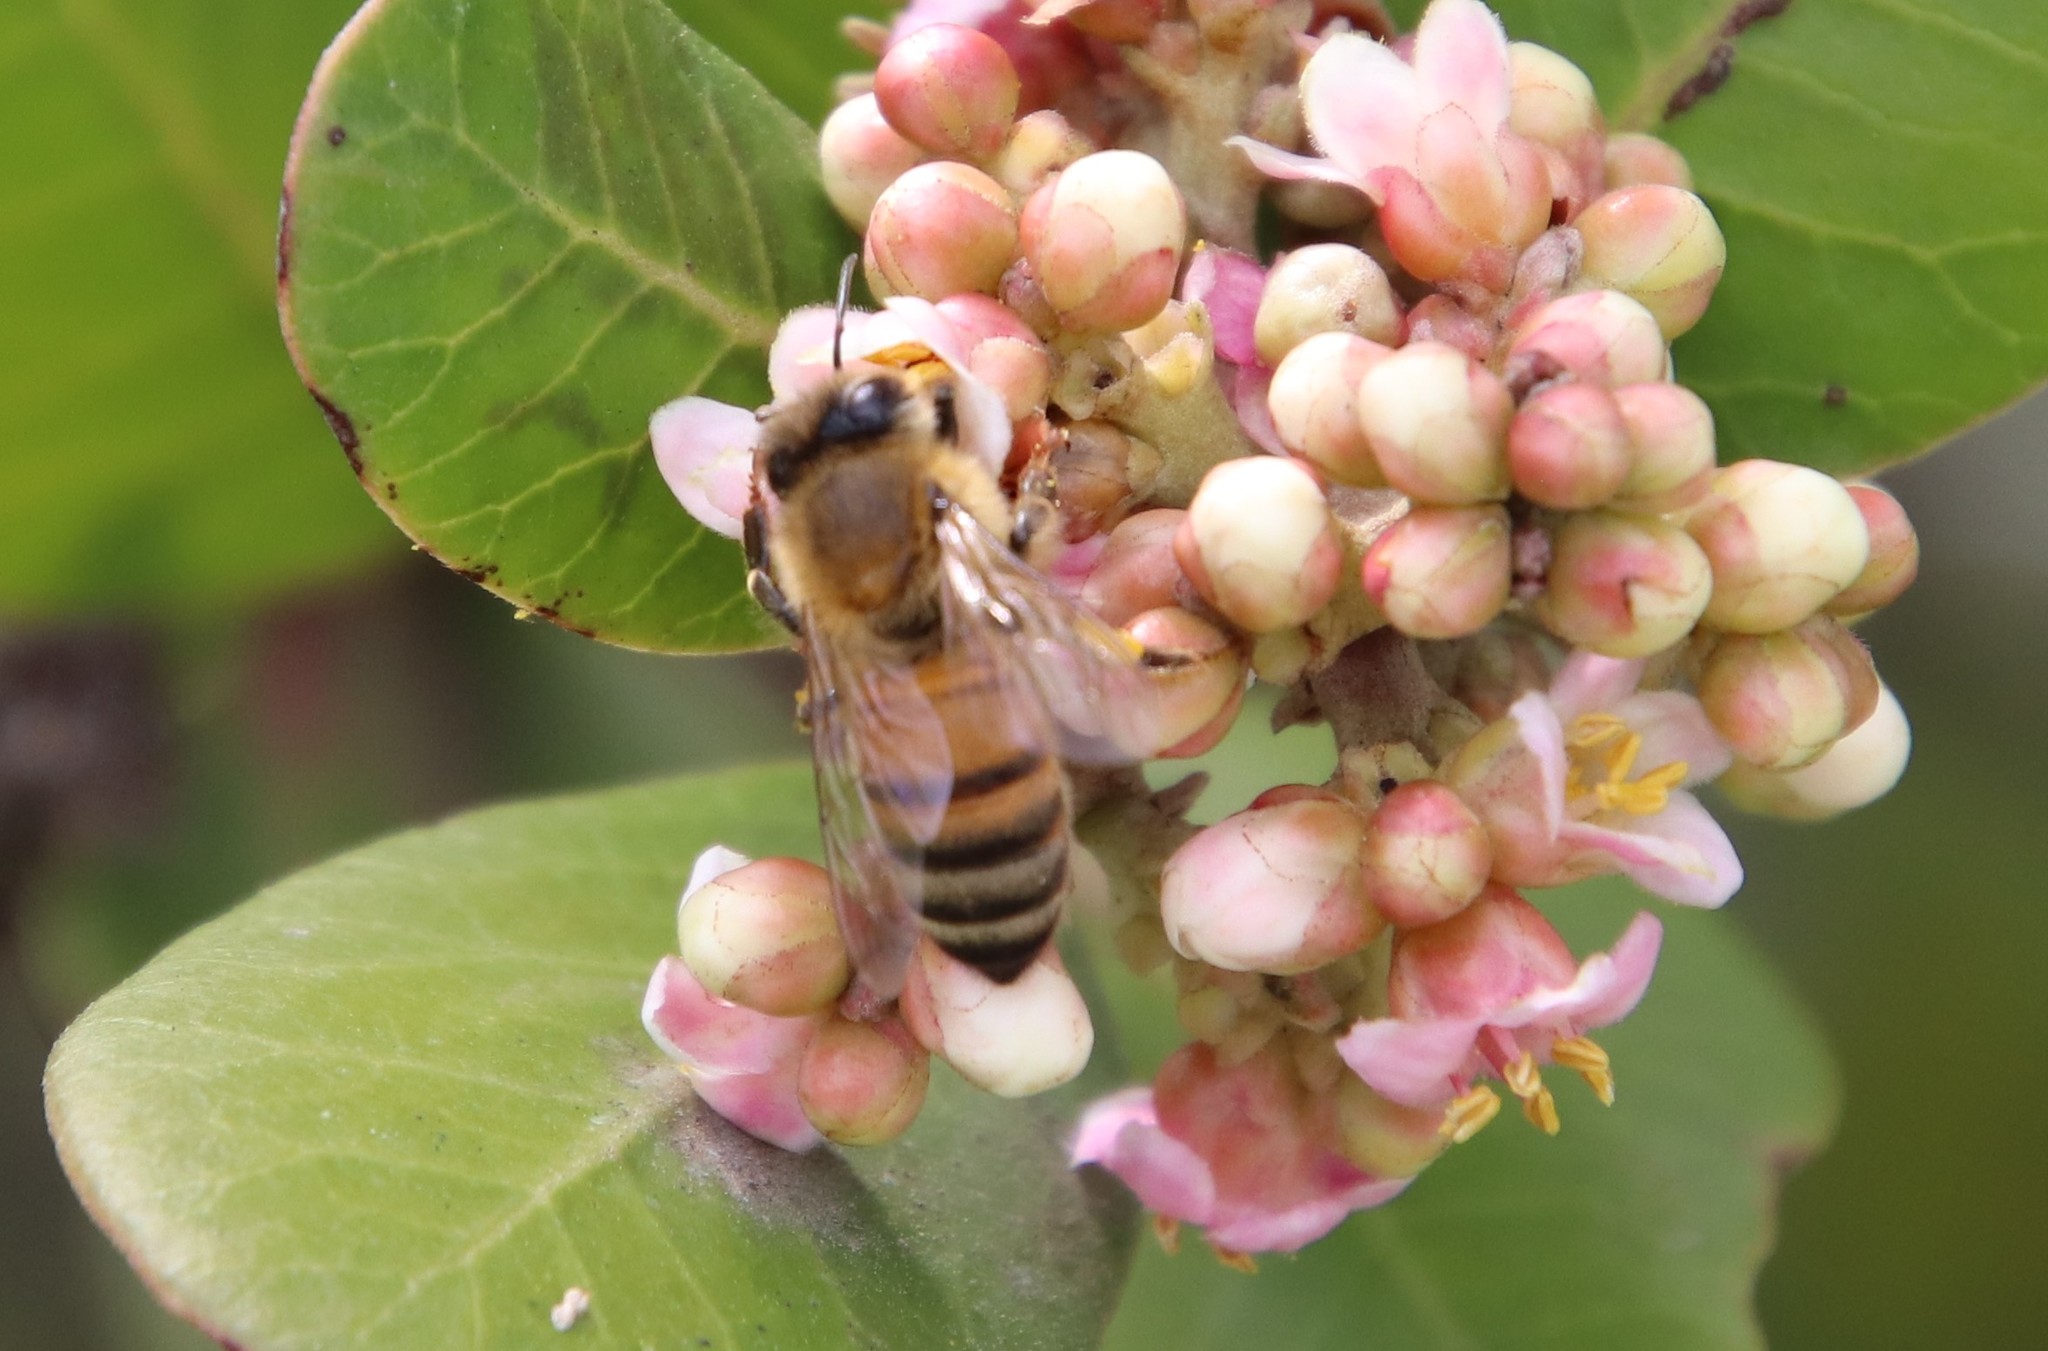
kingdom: Animalia
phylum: Arthropoda
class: Insecta
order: Hymenoptera
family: Apidae
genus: Apis
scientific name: Apis mellifera
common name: Honey bee
